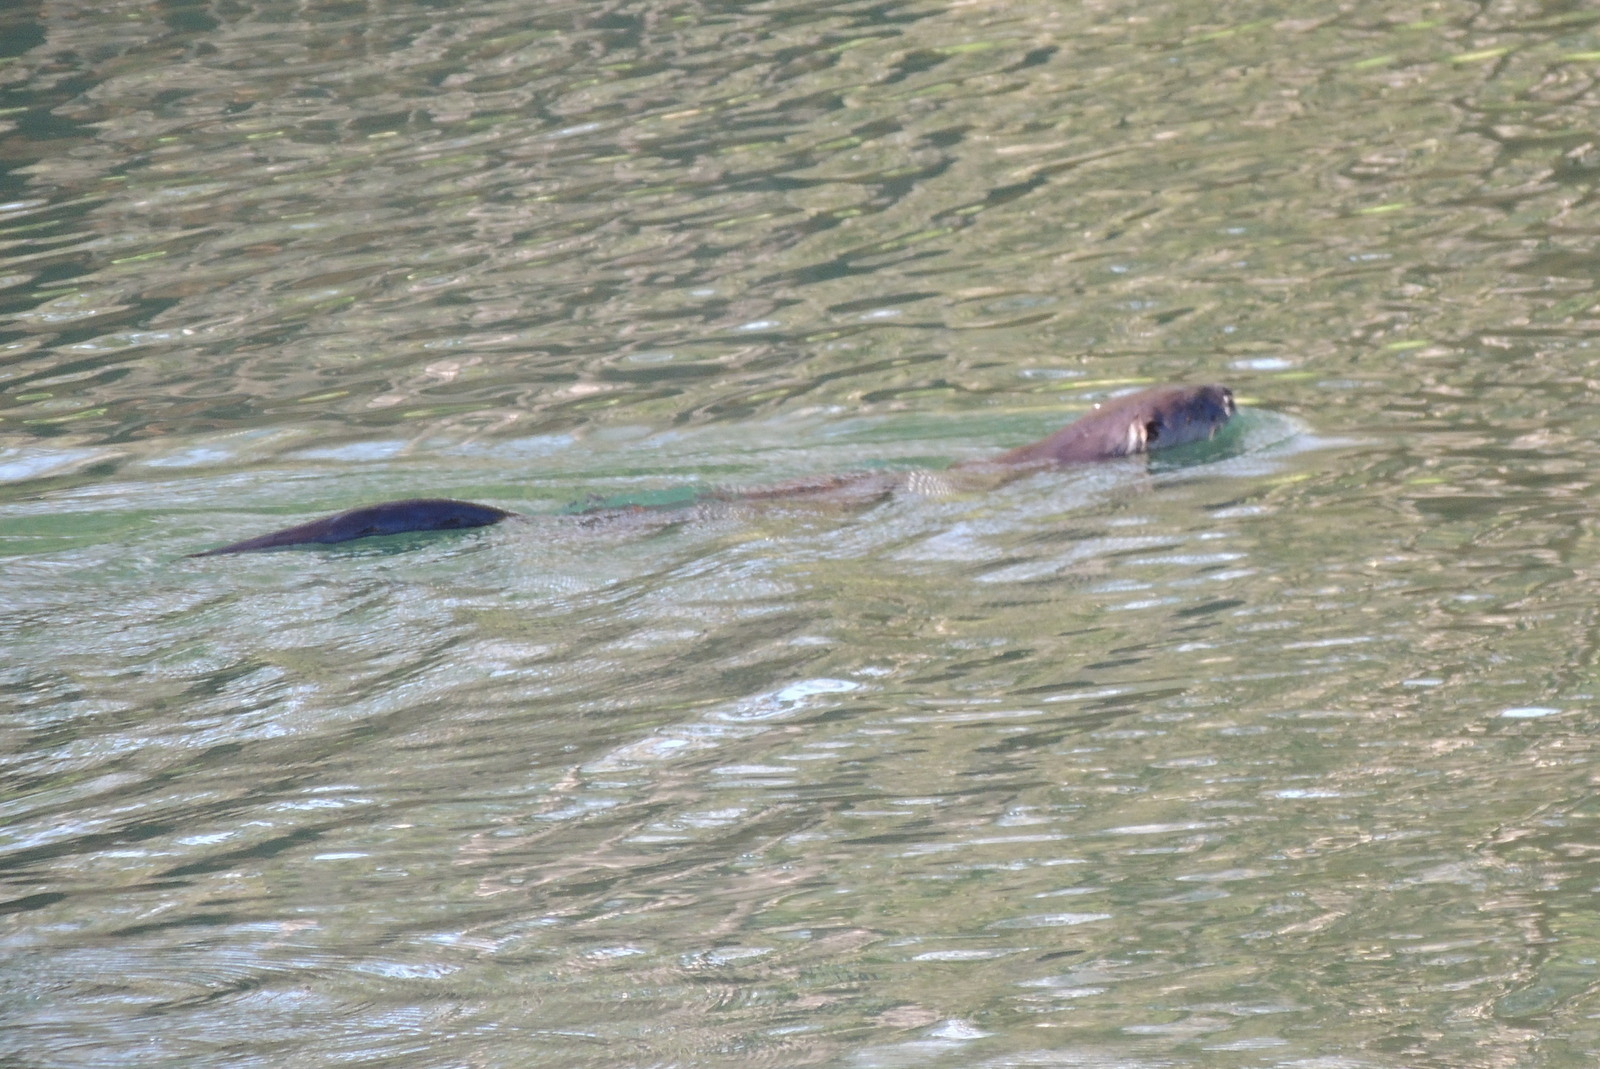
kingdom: Animalia
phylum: Chordata
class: Mammalia
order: Carnivora
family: Mustelidae
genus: Lontra
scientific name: Lontra canadensis
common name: North american river otter
